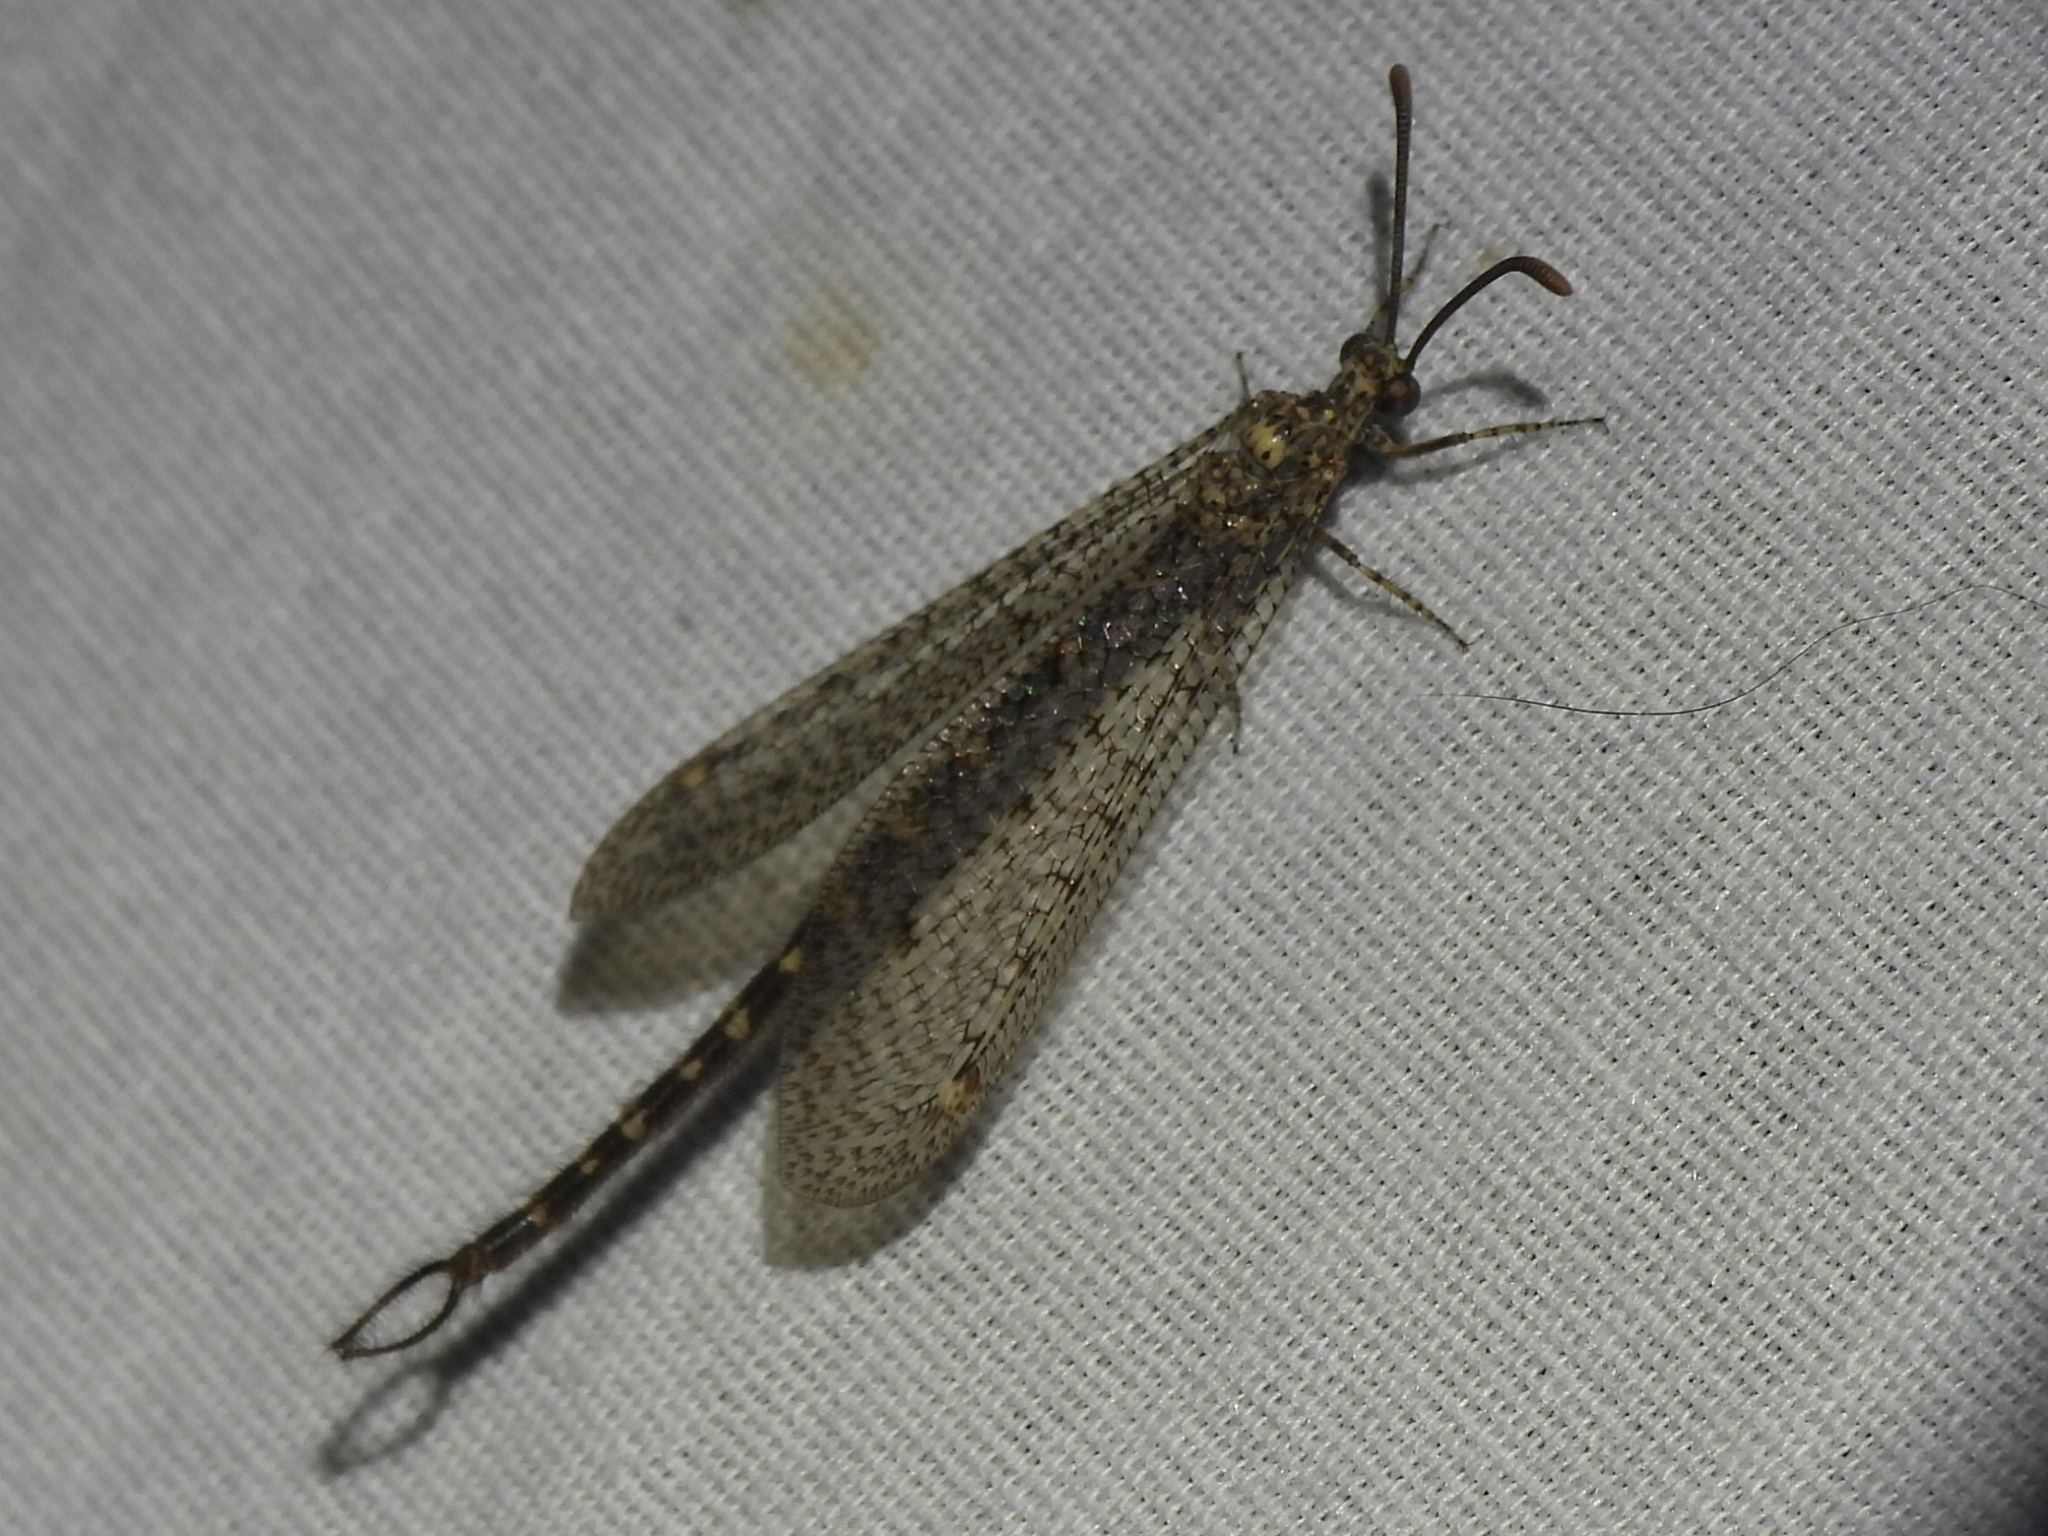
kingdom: Animalia
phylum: Arthropoda
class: Insecta
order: Neuroptera
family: Myrmeleontidae
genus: Brachynemurus
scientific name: Brachynemurus sackeni
